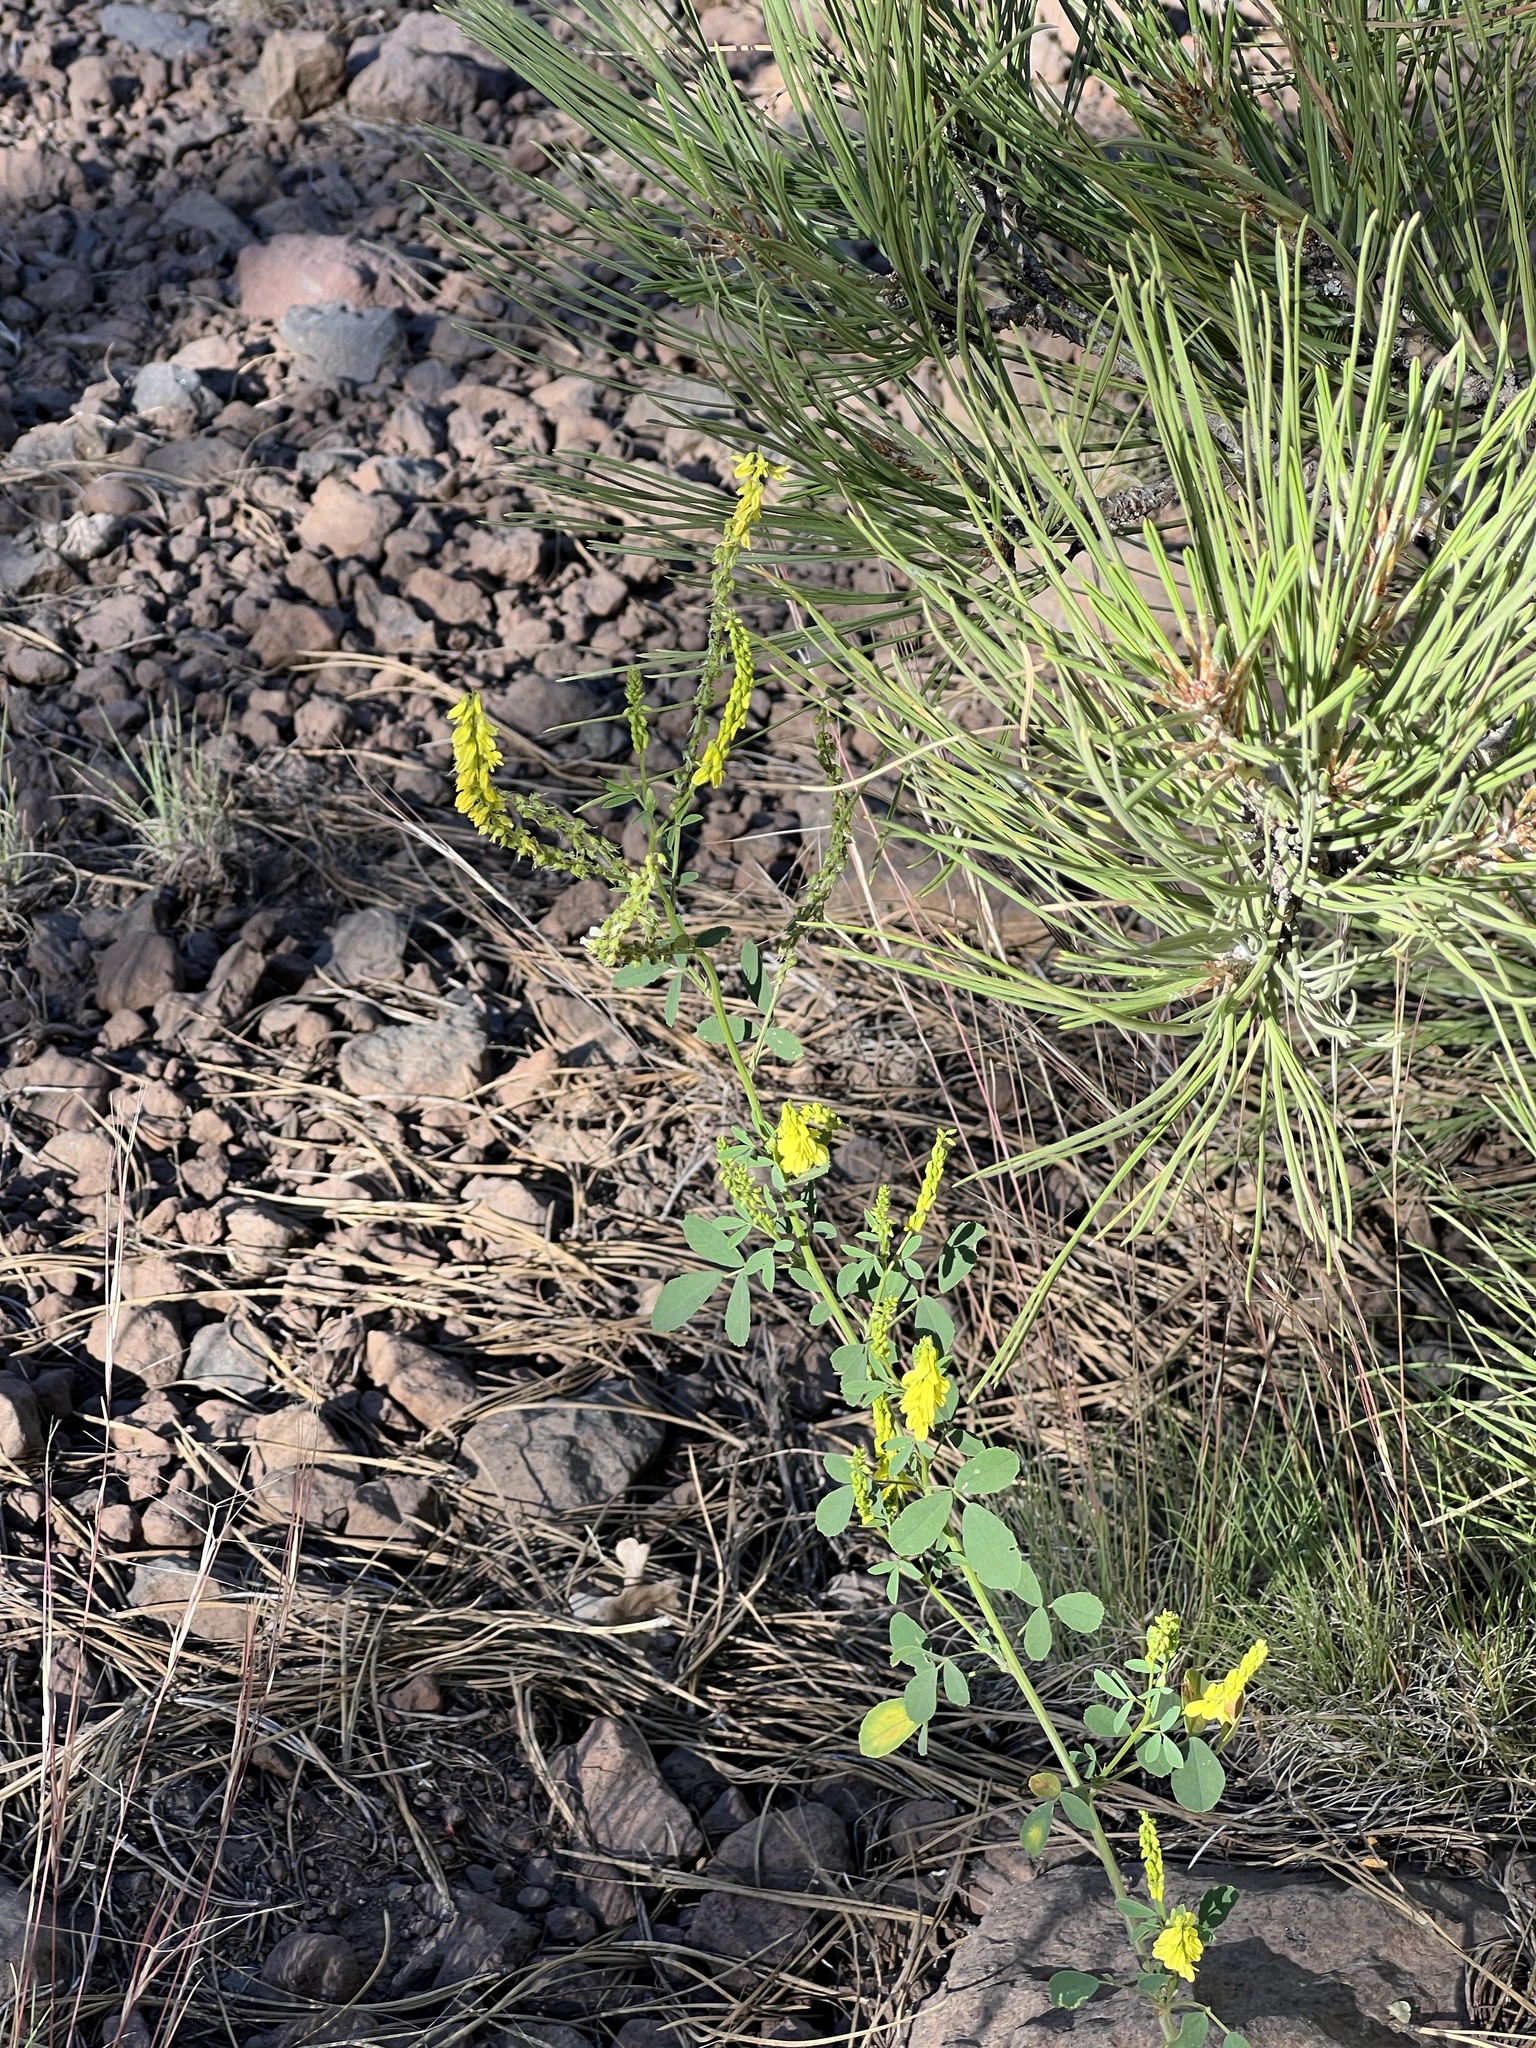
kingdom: Plantae
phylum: Tracheophyta
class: Magnoliopsida
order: Fabales
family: Fabaceae
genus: Melilotus
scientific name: Melilotus officinalis
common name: Sweetclover
